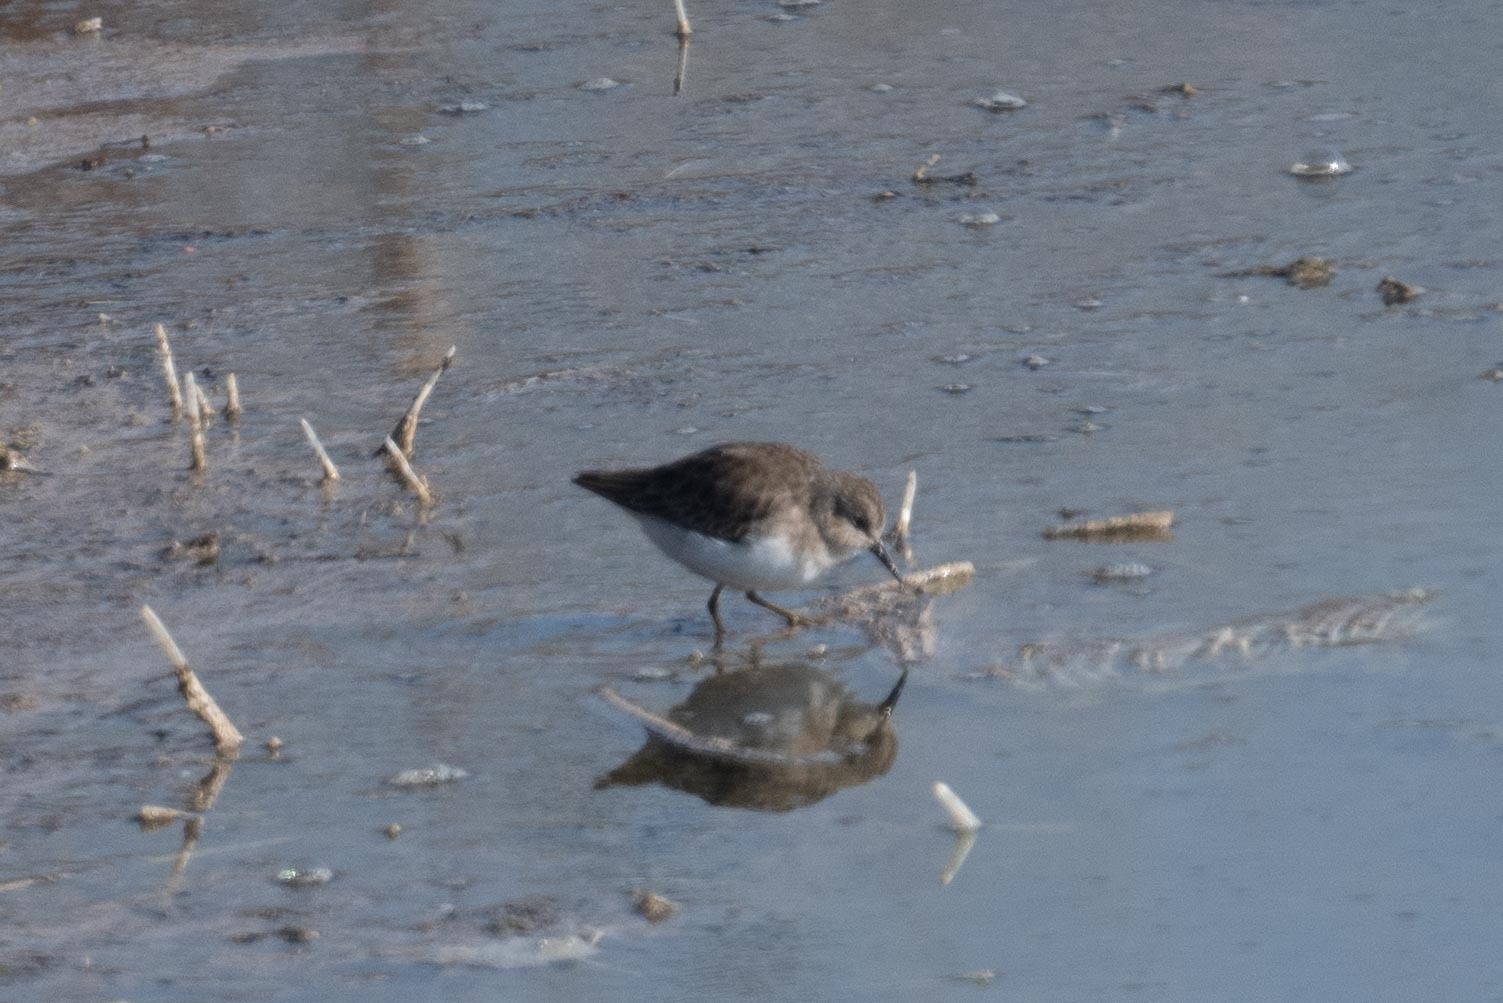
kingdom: Animalia
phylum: Chordata
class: Aves
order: Charadriiformes
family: Scolopacidae
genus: Calidris
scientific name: Calidris minutilla
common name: Least sandpiper
